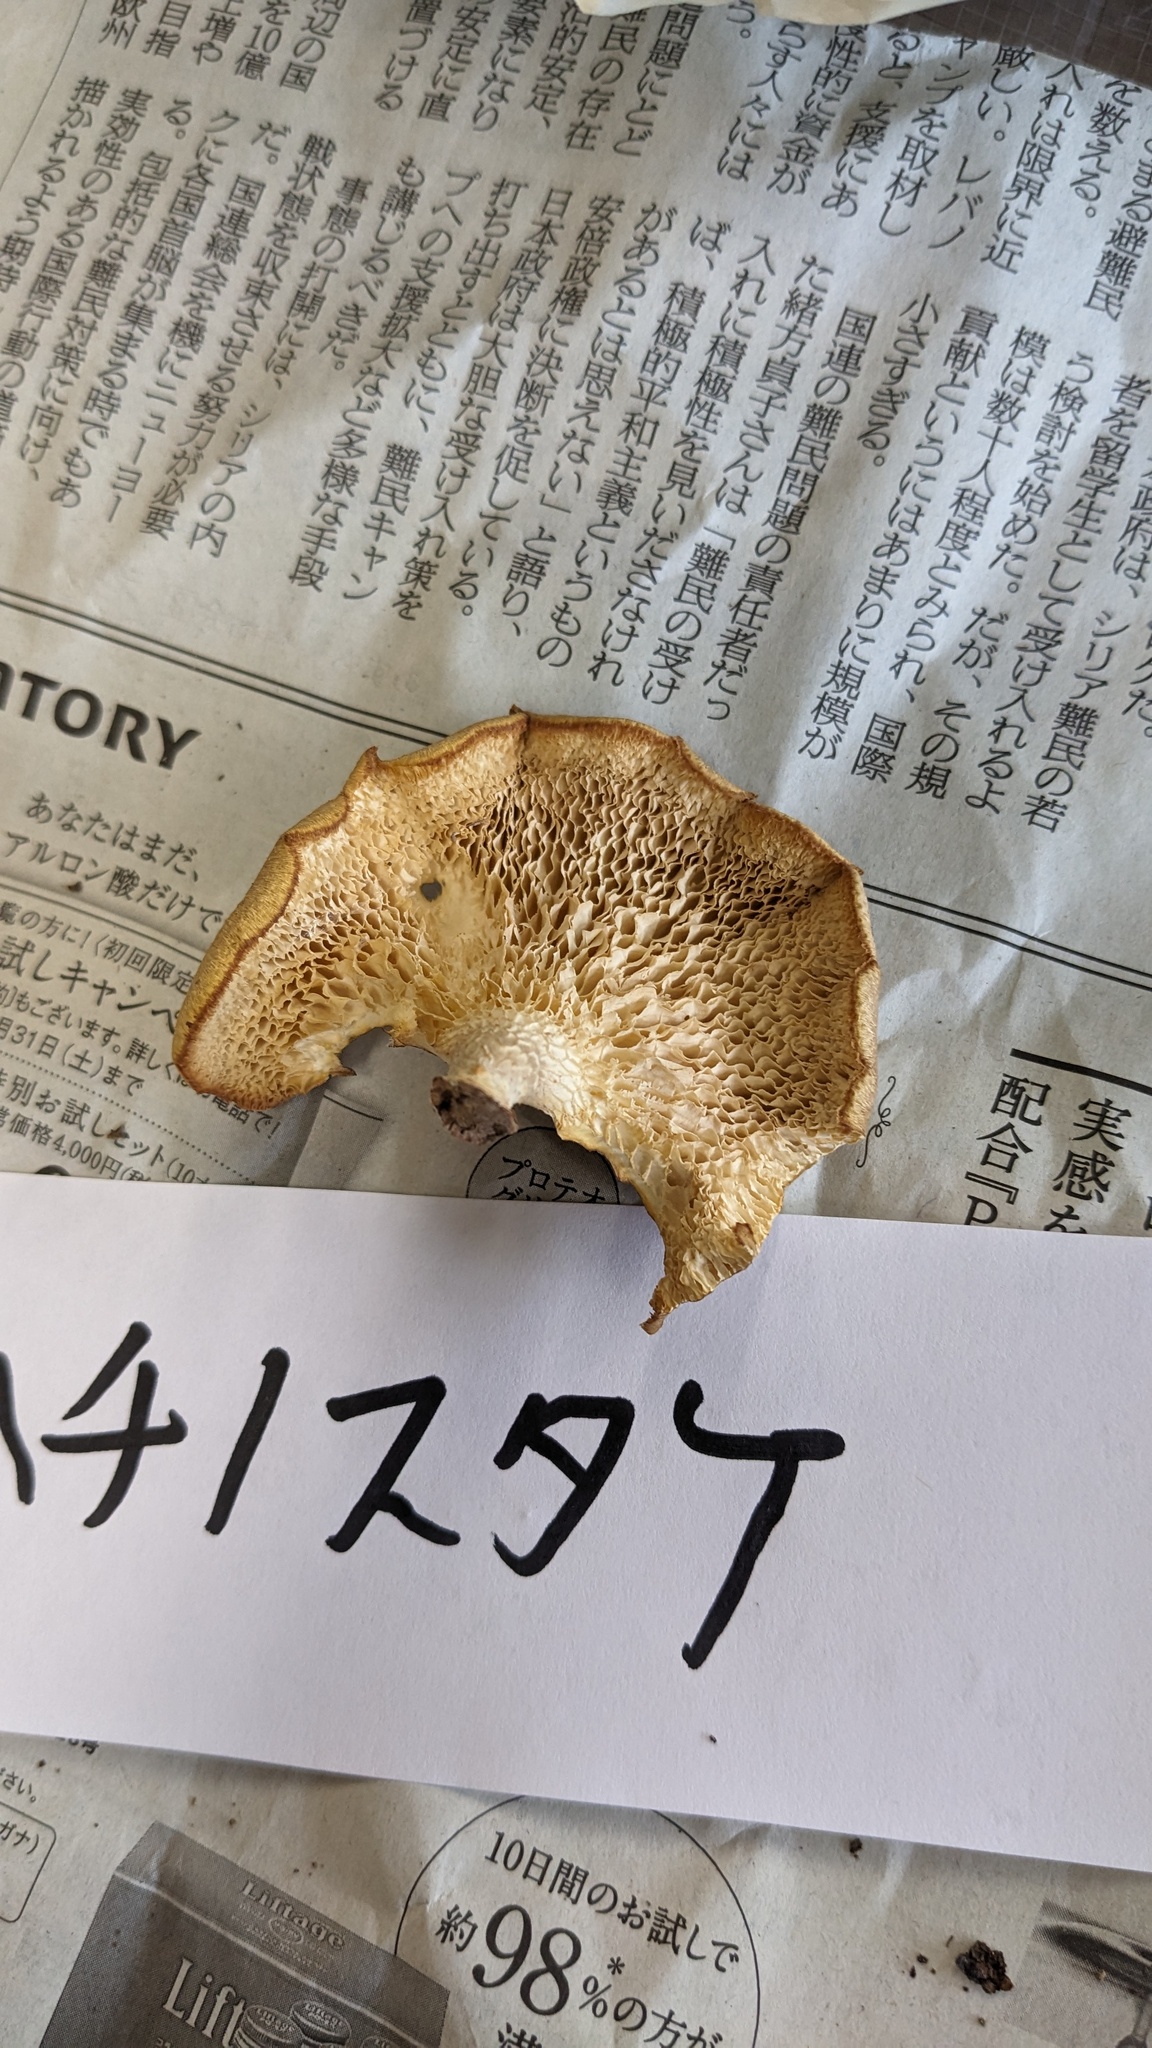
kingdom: Fungi
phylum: Basidiomycota
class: Agaricomycetes
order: Polyporales
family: Polyporaceae
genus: Neofavolus
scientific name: Neofavolus alveolaris
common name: Hexagonal-pored polypore
